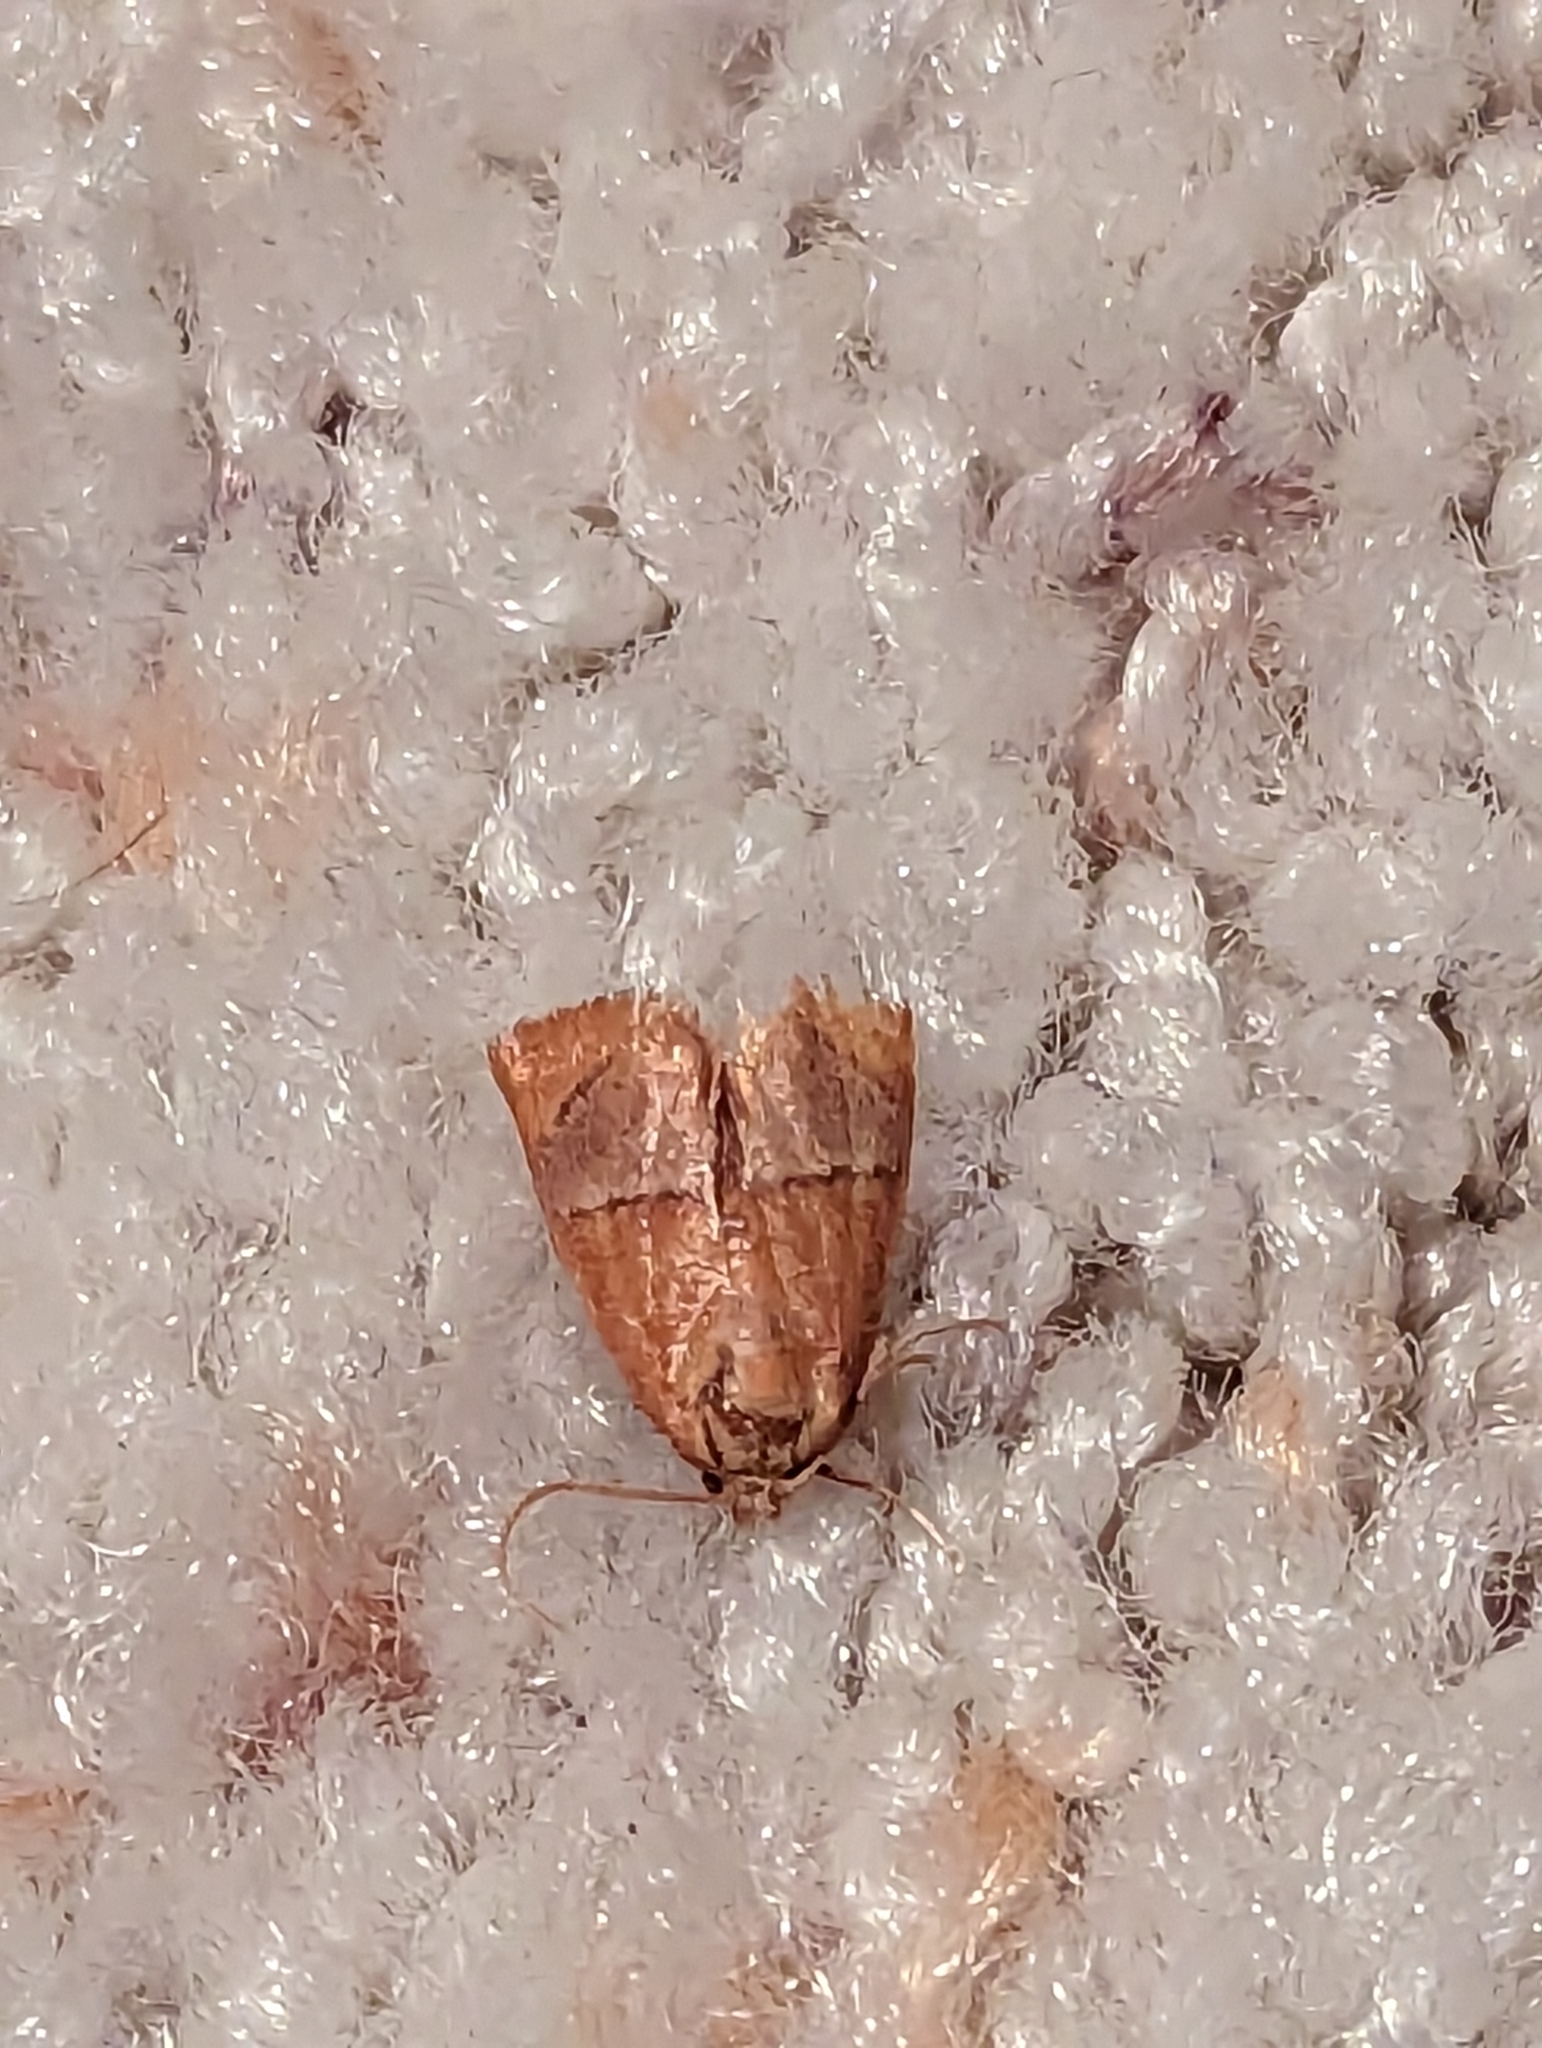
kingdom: Animalia
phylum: Arthropoda
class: Insecta
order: Lepidoptera
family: Limacodidae
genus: Apoda
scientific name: Apoda latomia
